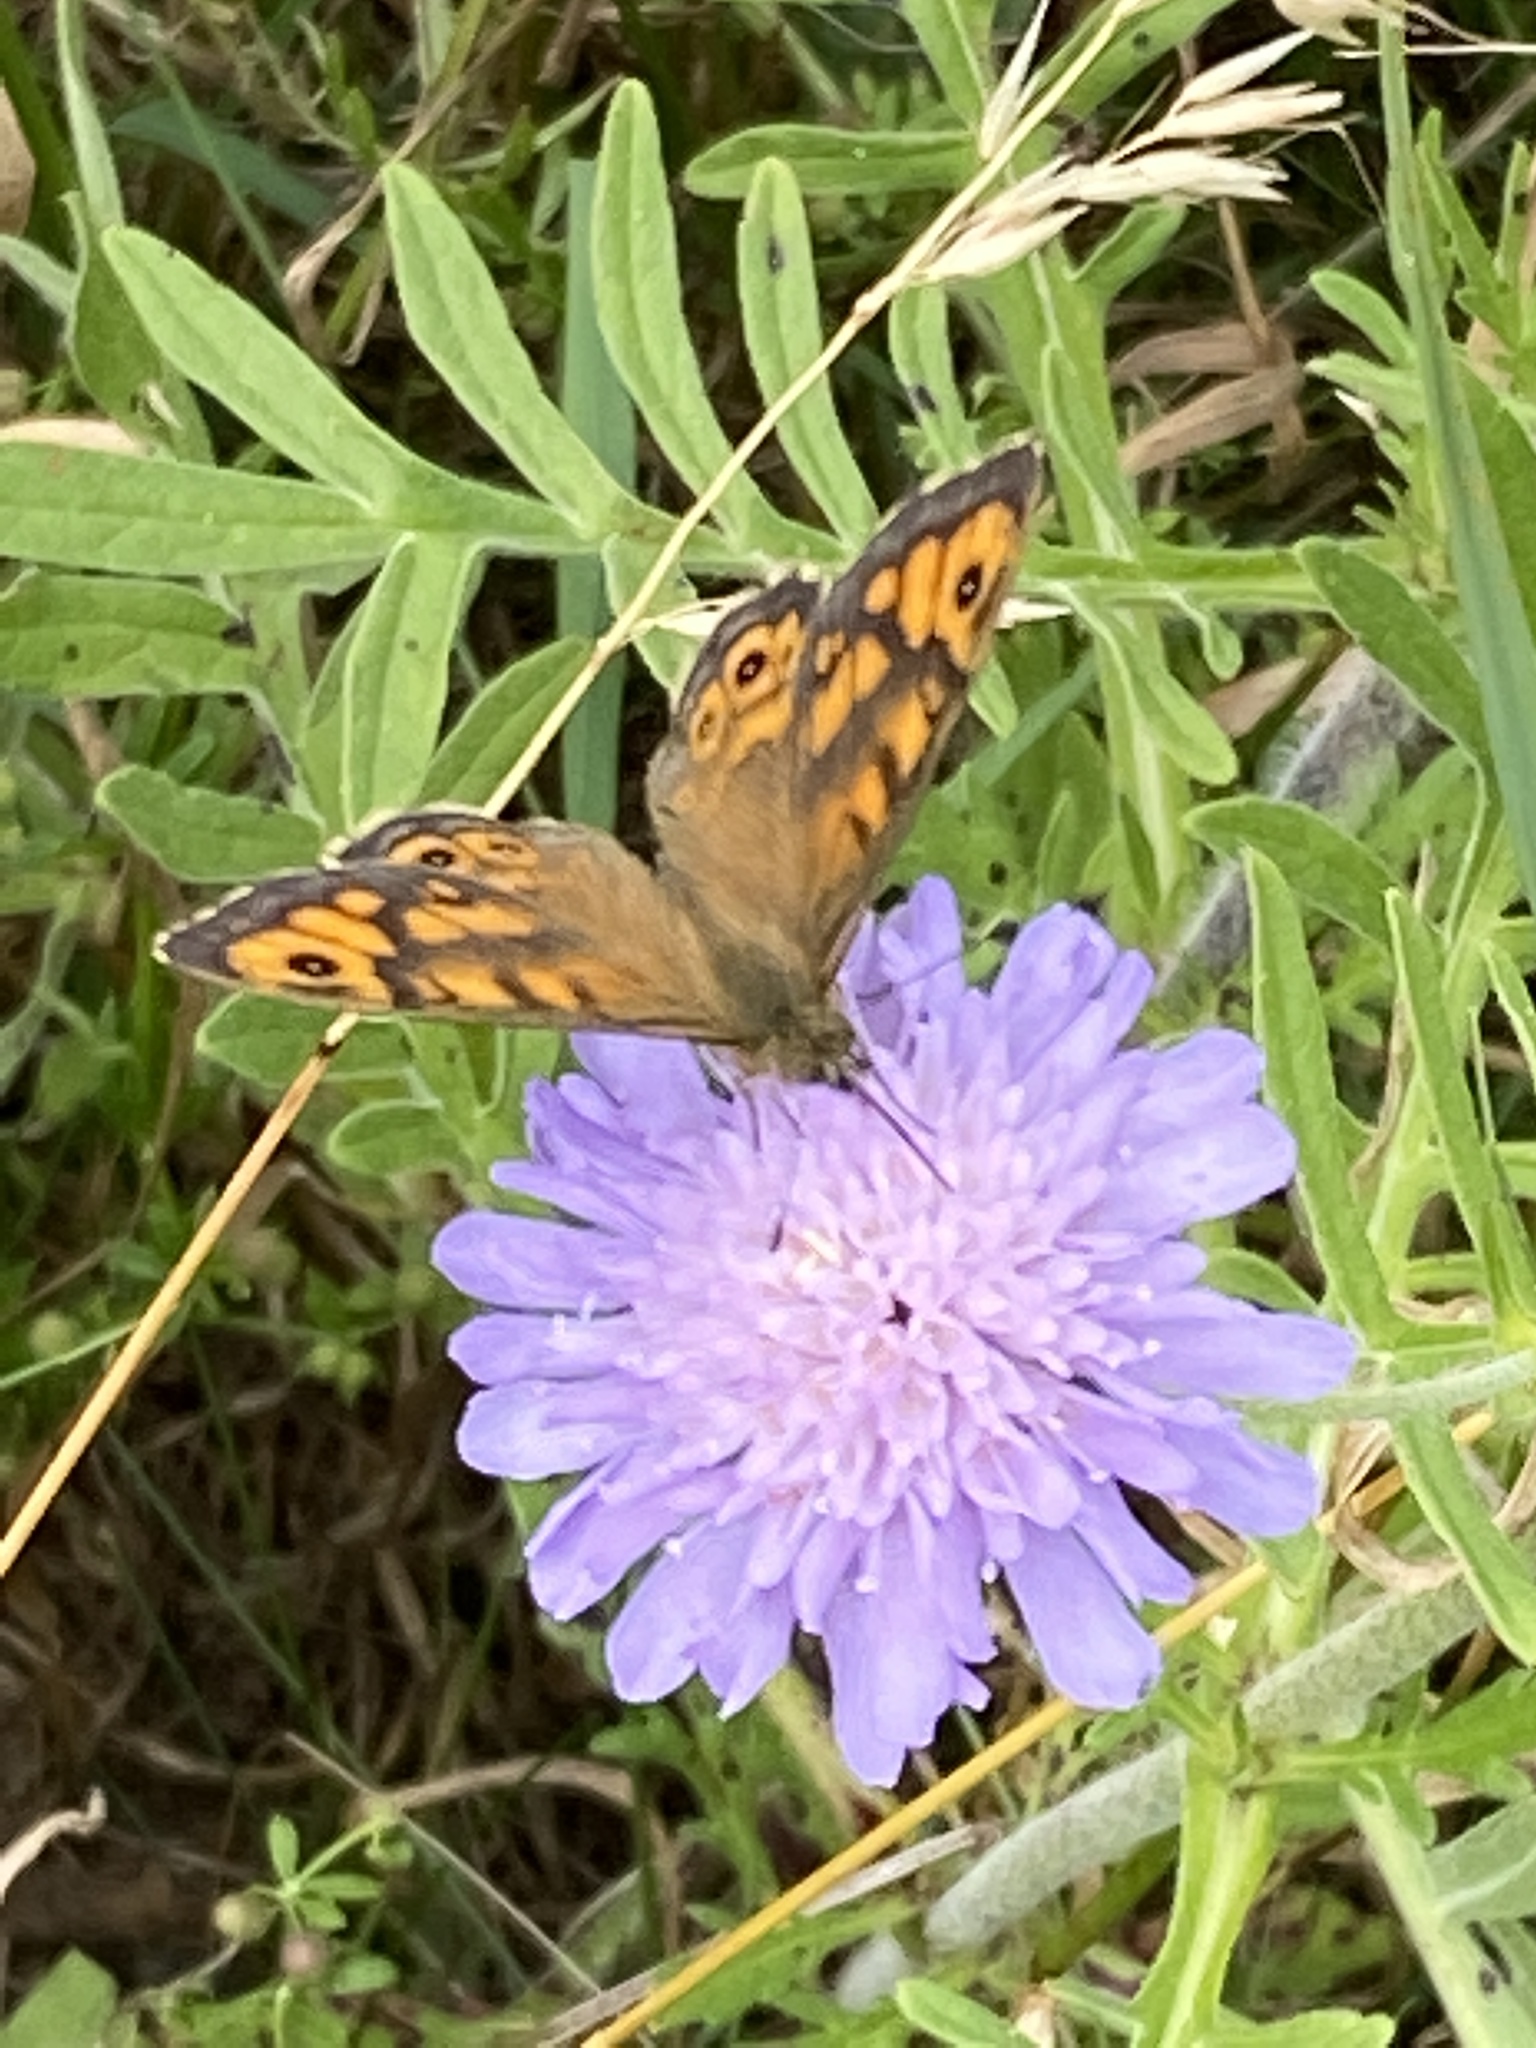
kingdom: Animalia
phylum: Arthropoda
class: Insecta
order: Lepidoptera
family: Nymphalidae
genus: Pararge
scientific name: Pararge Lasiommata megera
